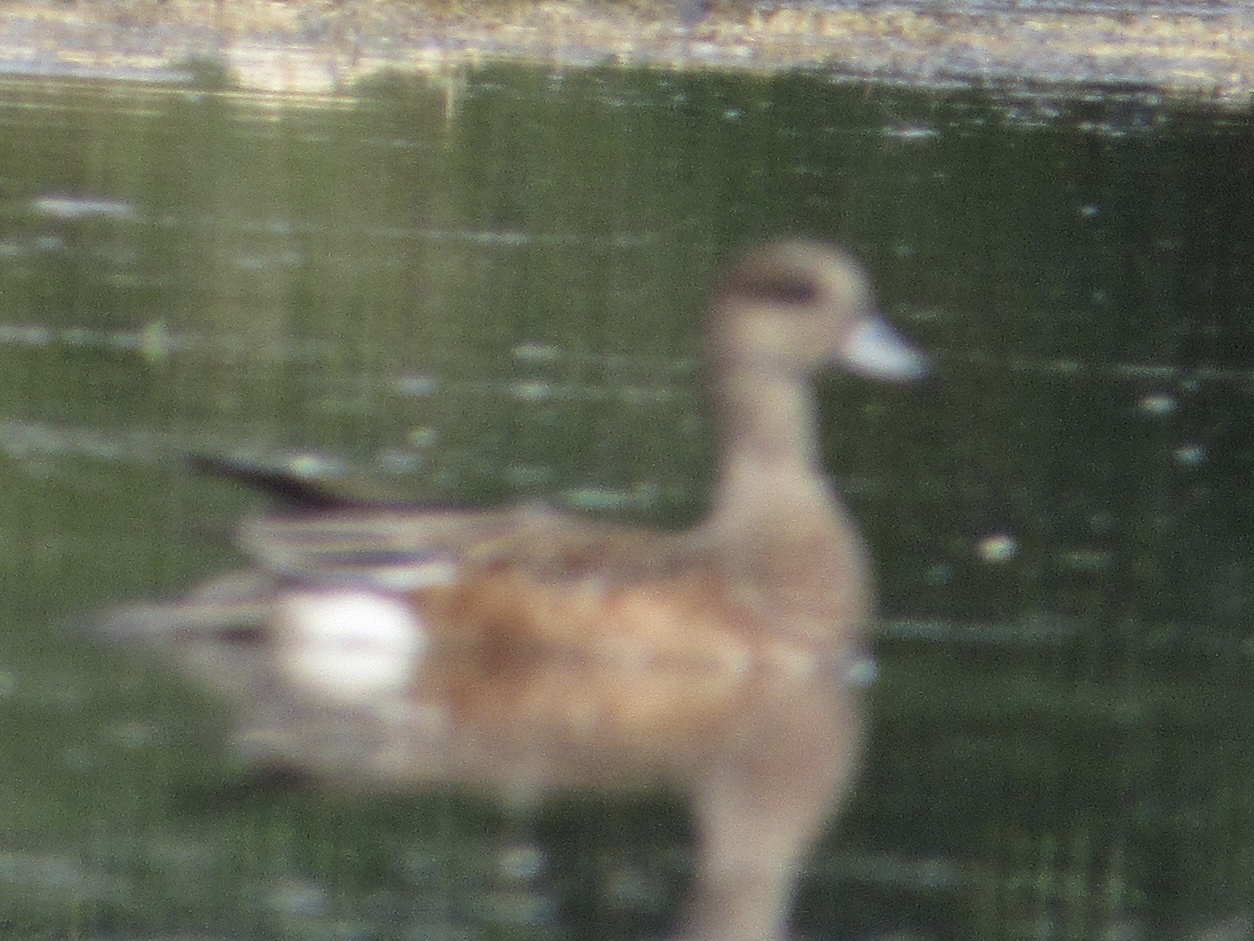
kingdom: Animalia
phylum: Chordata
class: Aves
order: Anseriformes
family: Anatidae
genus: Mareca
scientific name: Mareca americana
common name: American wigeon
